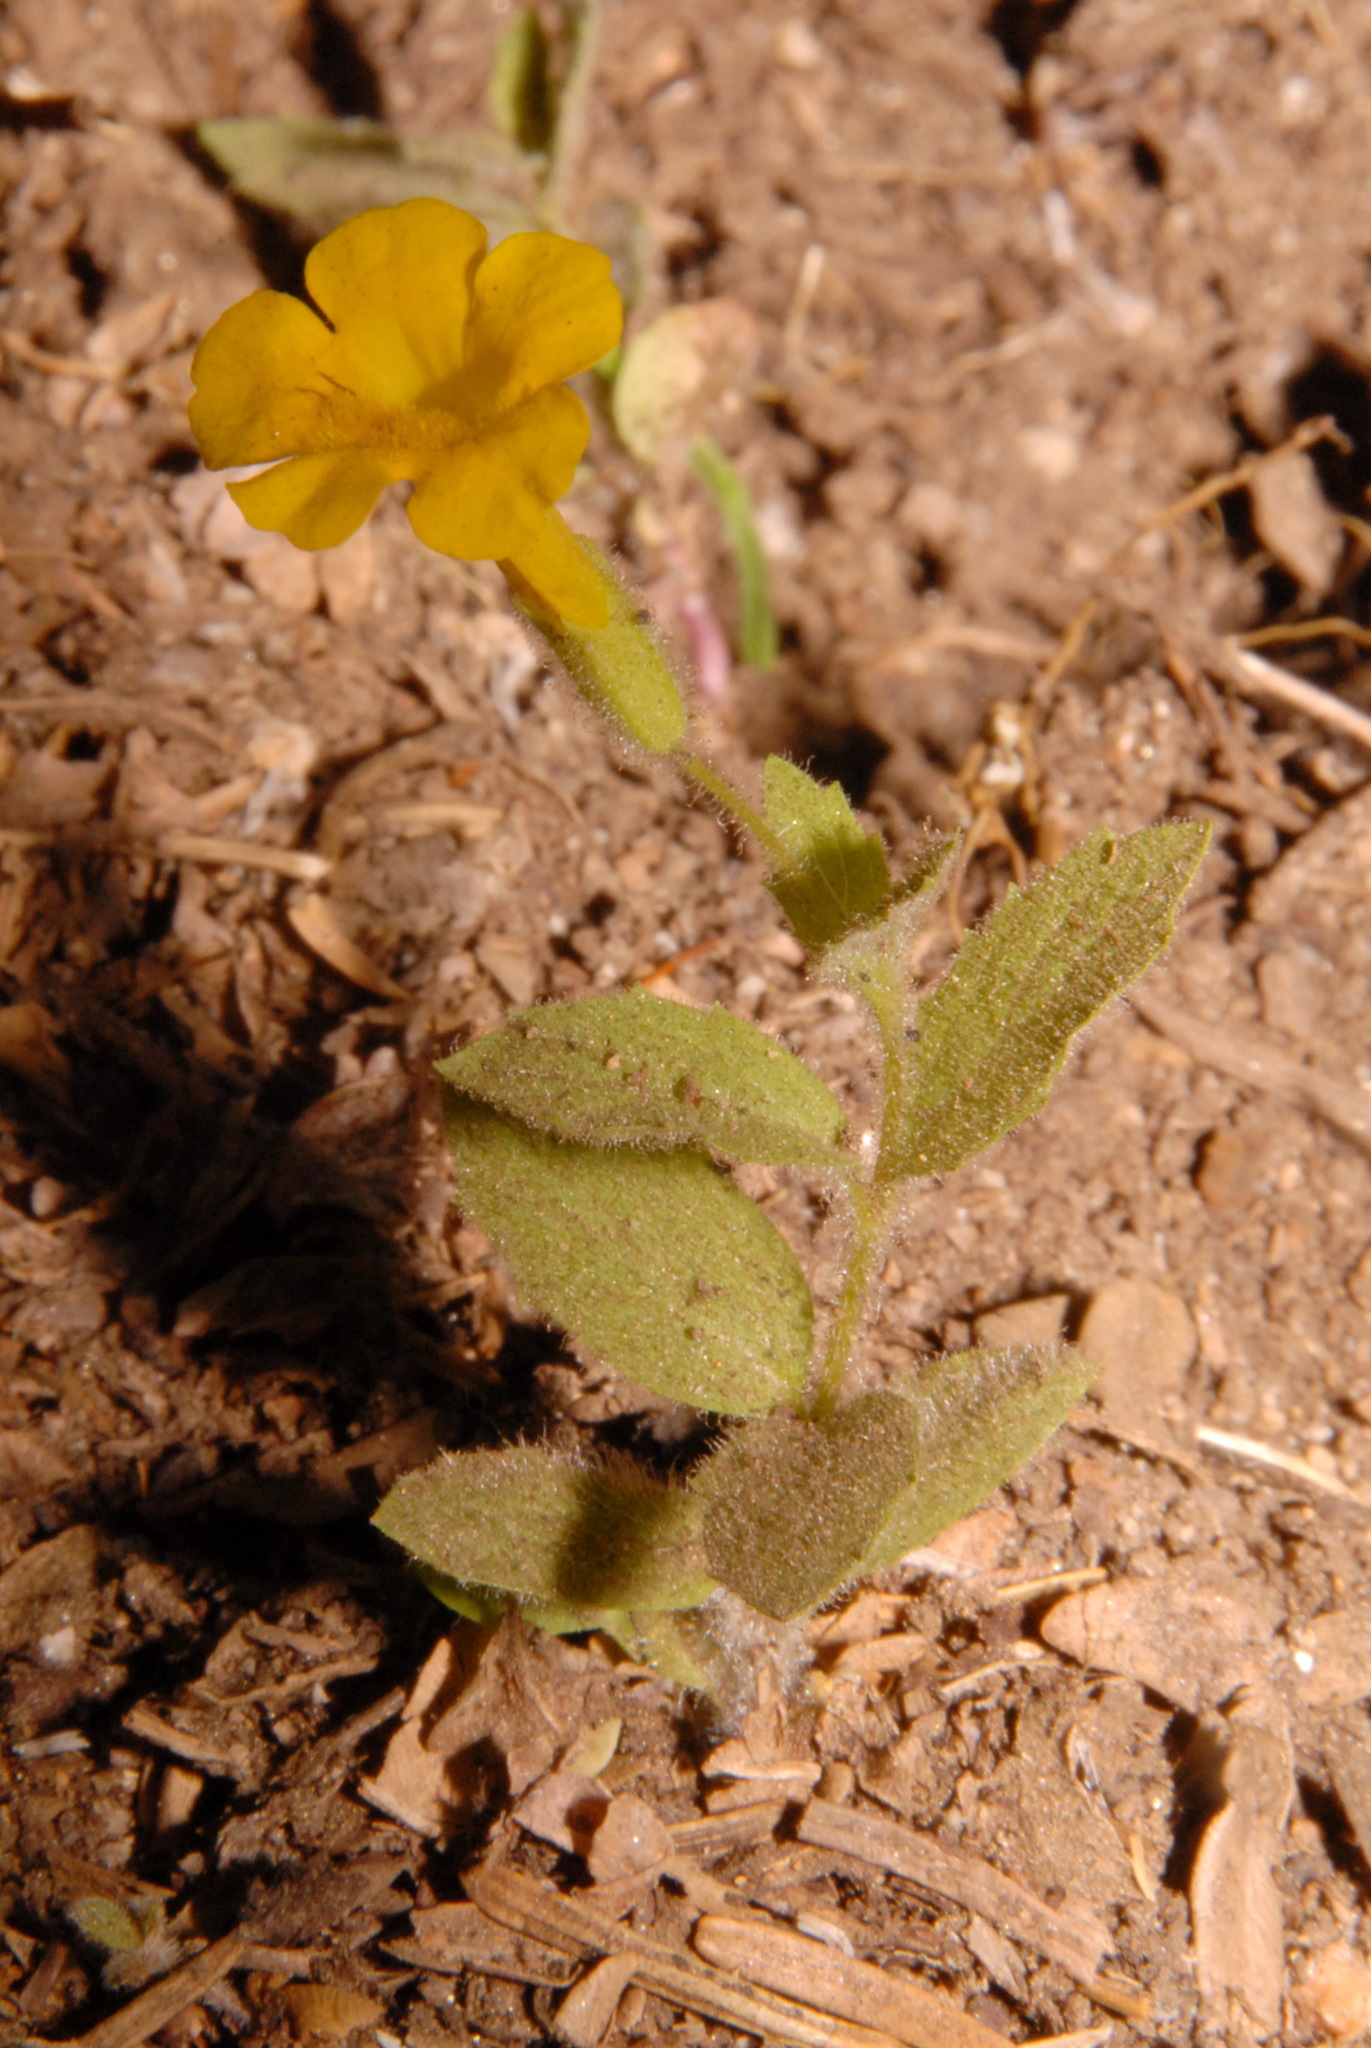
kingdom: Plantae
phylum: Tracheophyta
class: Magnoliopsida
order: Lamiales
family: Phrymaceae
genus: Erythranthe
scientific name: Erythranthe moschata
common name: Muskflower
